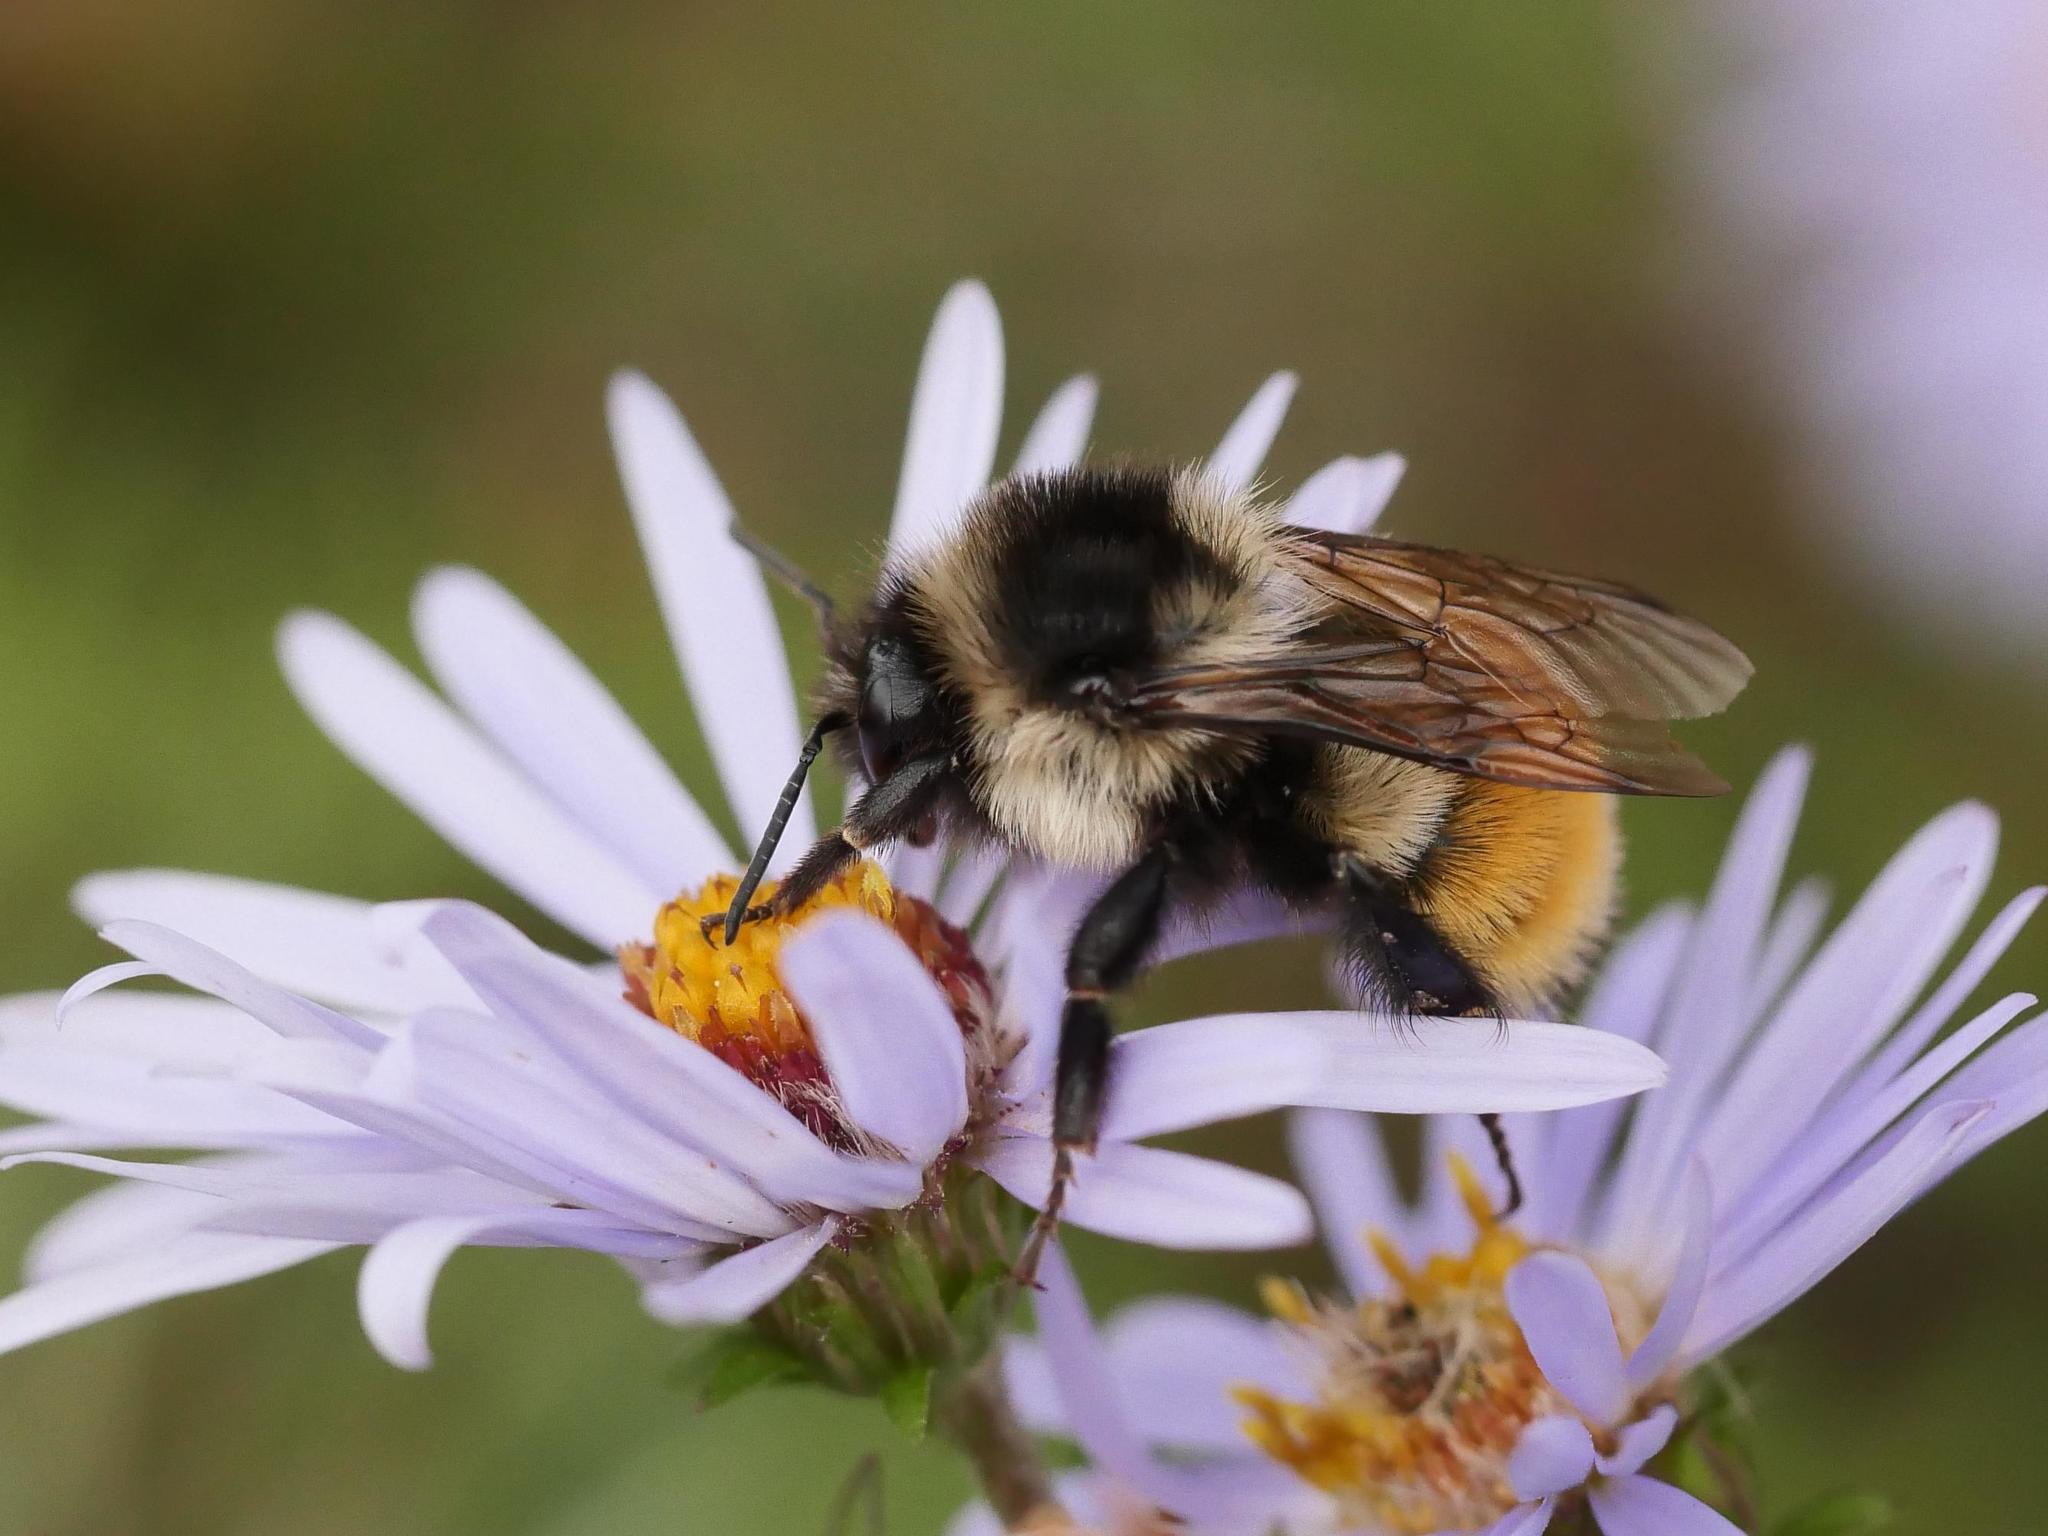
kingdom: Animalia
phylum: Arthropoda
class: Insecta
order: Hymenoptera
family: Apidae
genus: Bombus
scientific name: Bombus ternarius
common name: Tri-colored bumble bee
